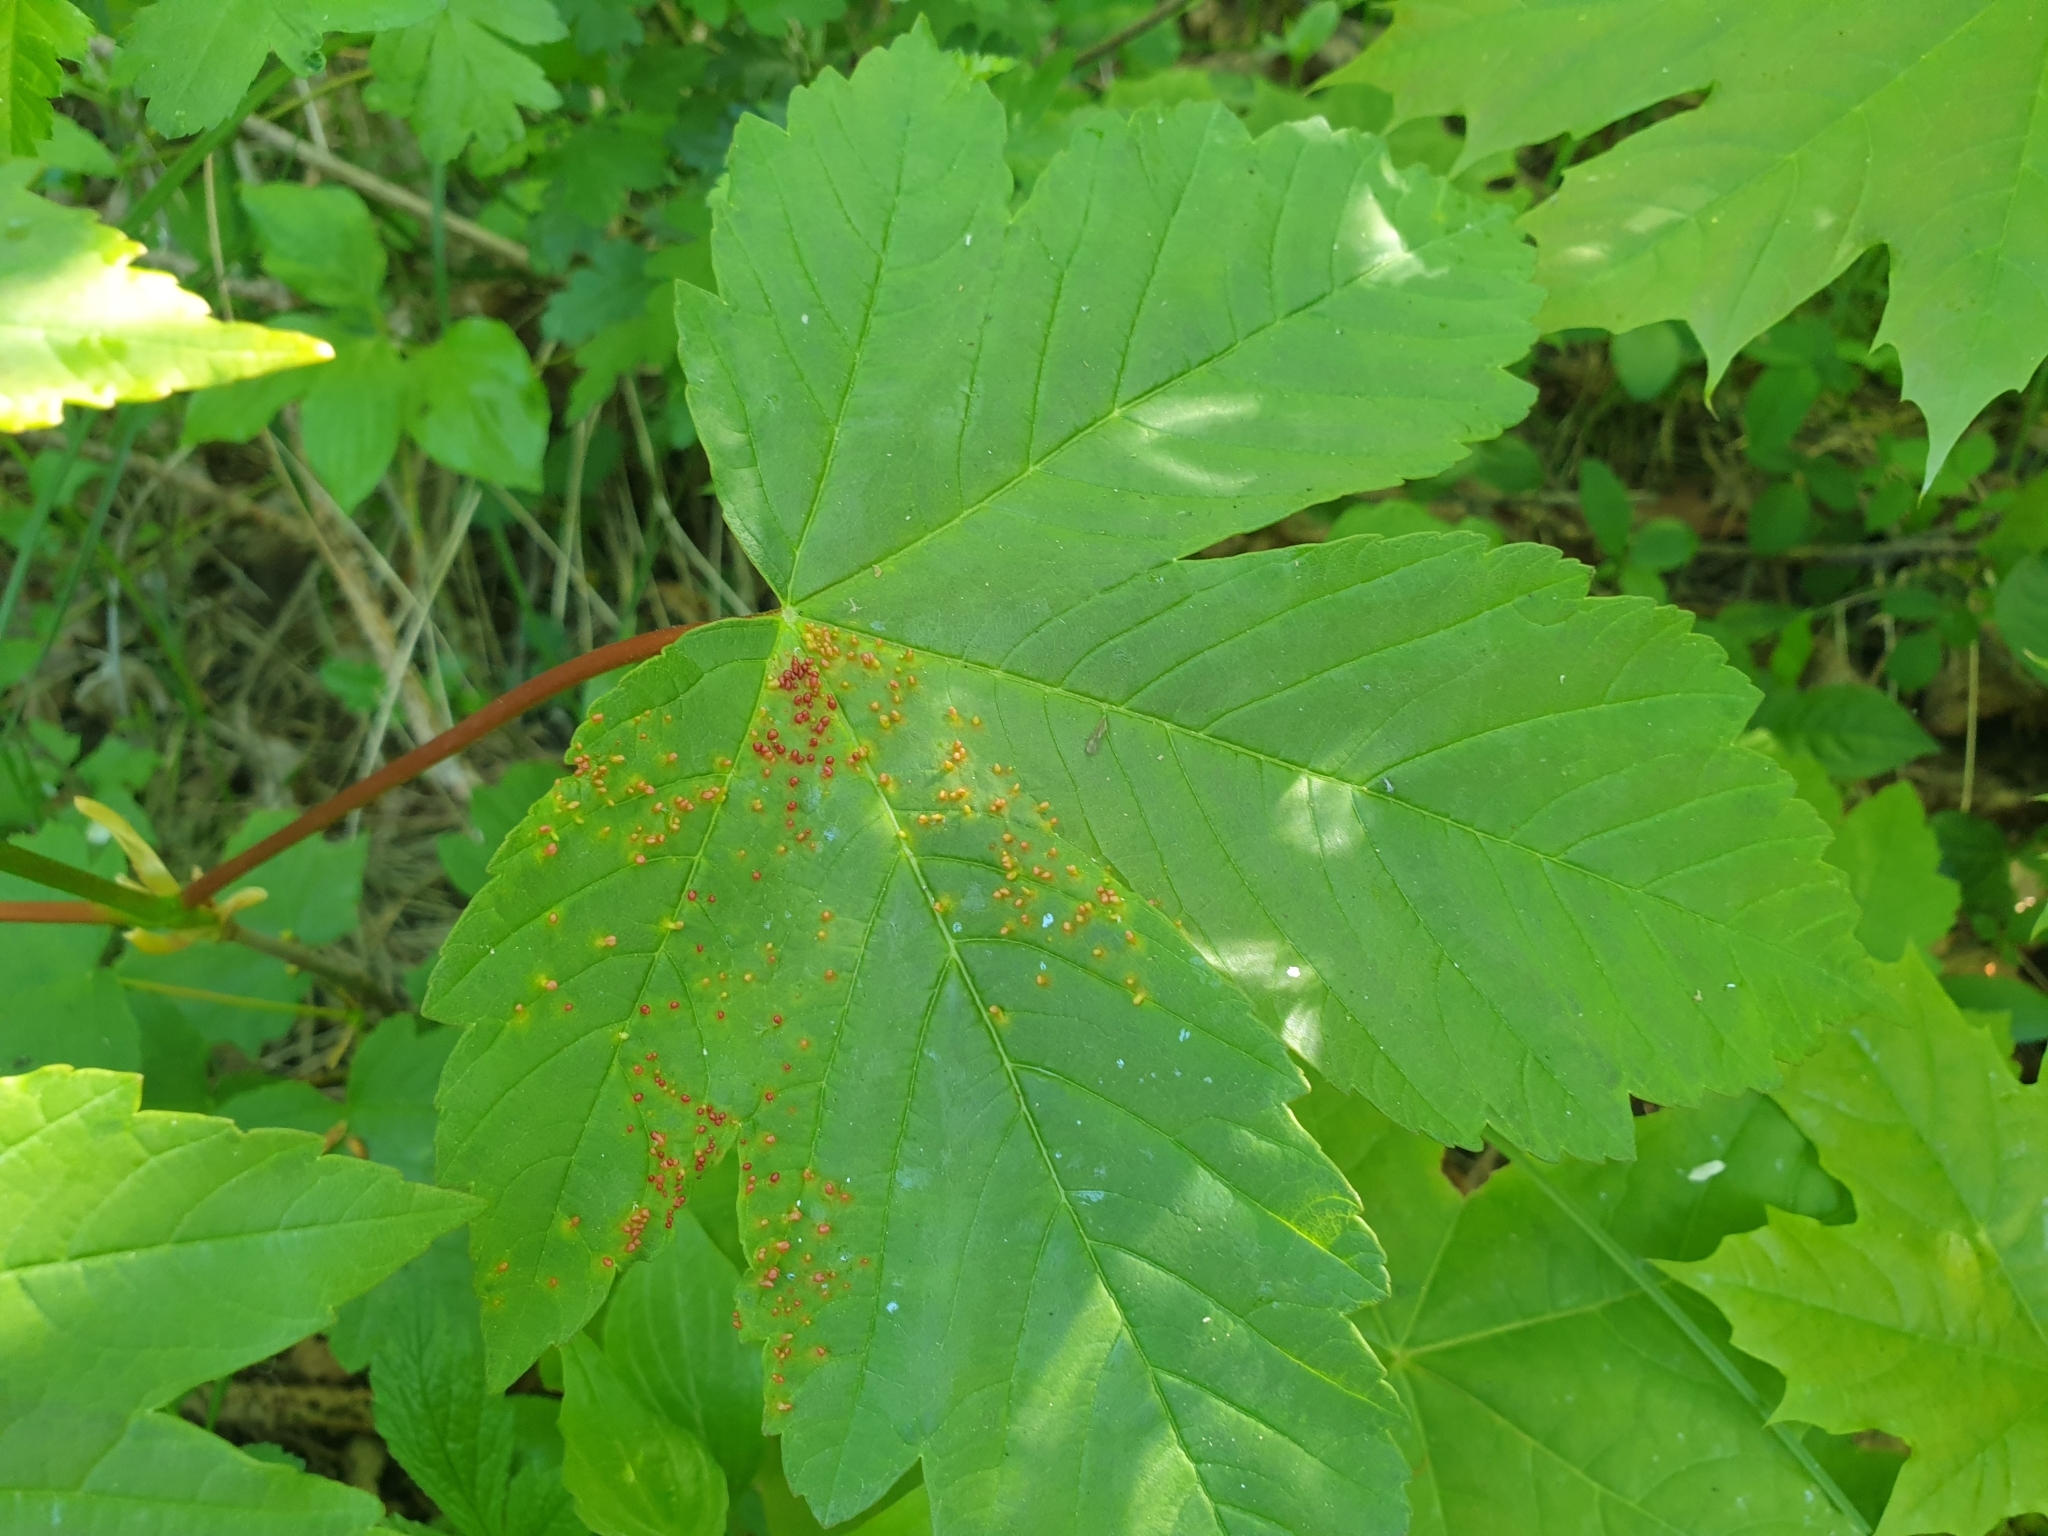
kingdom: Plantae
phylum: Tracheophyta
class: Magnoliopsida
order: Sapindales
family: Sapindaceae
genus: Acer
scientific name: Acer pseudoplatanus
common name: Sycamore
